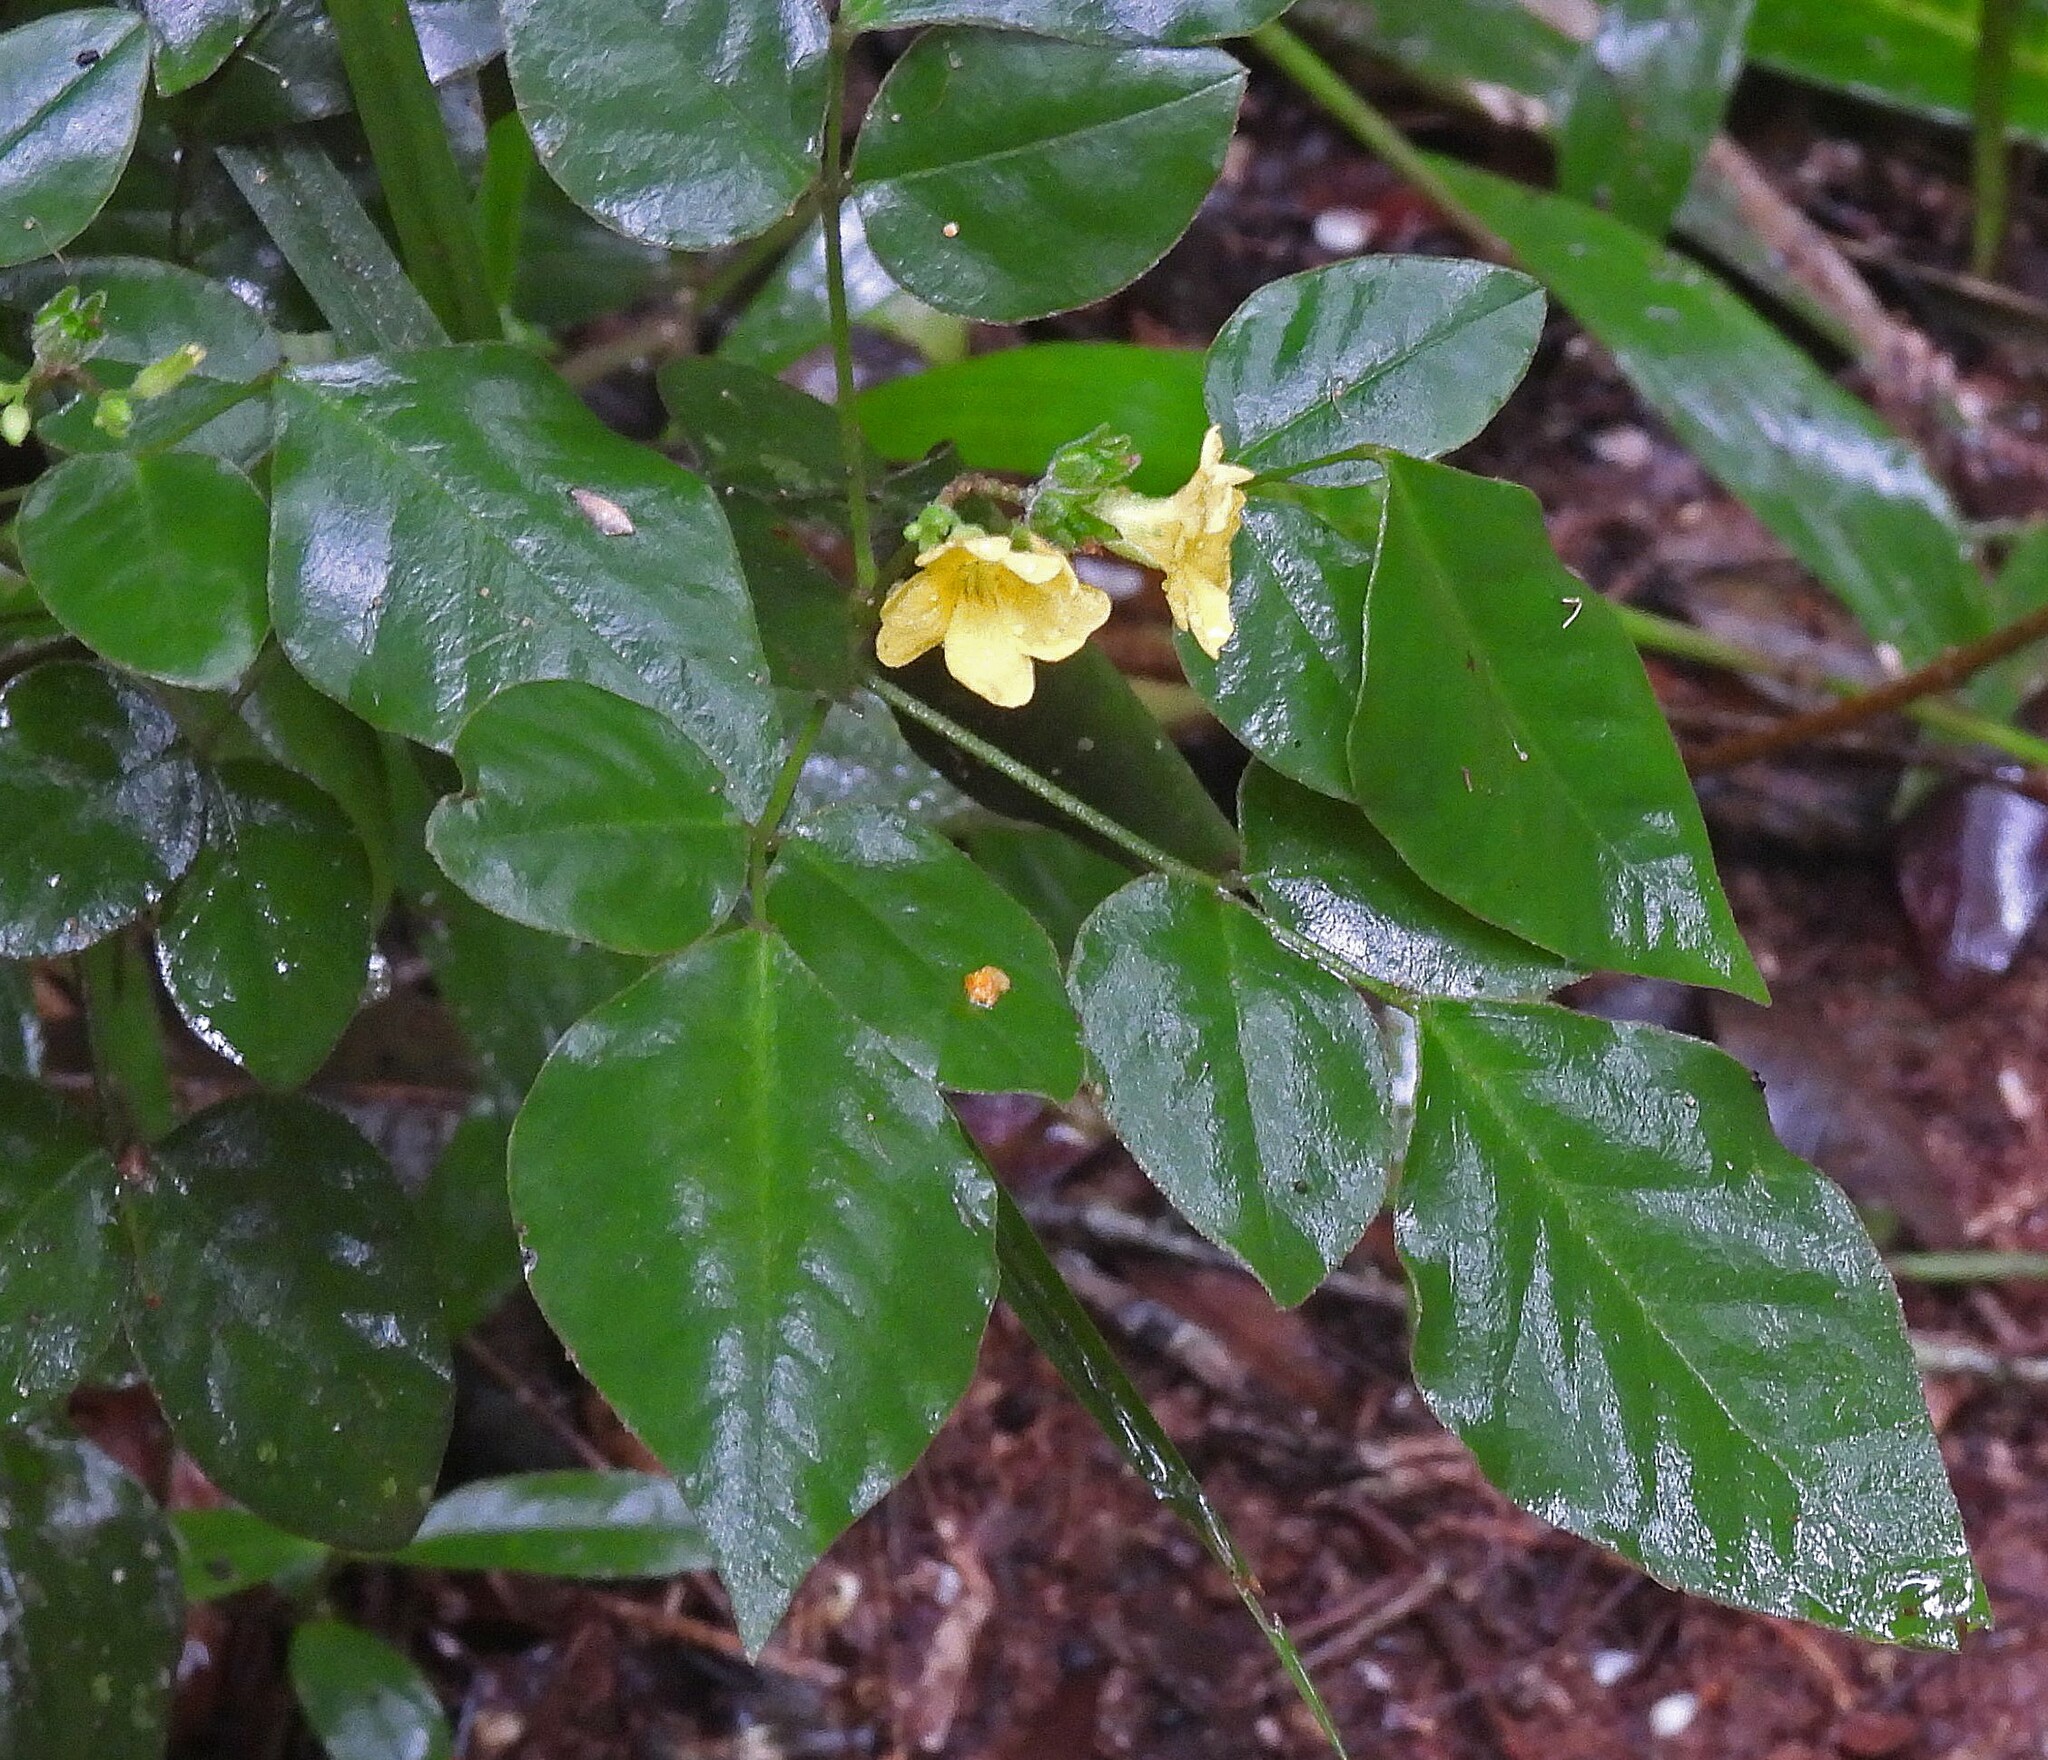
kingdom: Plantae
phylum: Tracheophyta
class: Magnoliopsida
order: Oxalidales
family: Oxalidaceae
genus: Oxalis
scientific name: Oxalis rhombeo-ovata
